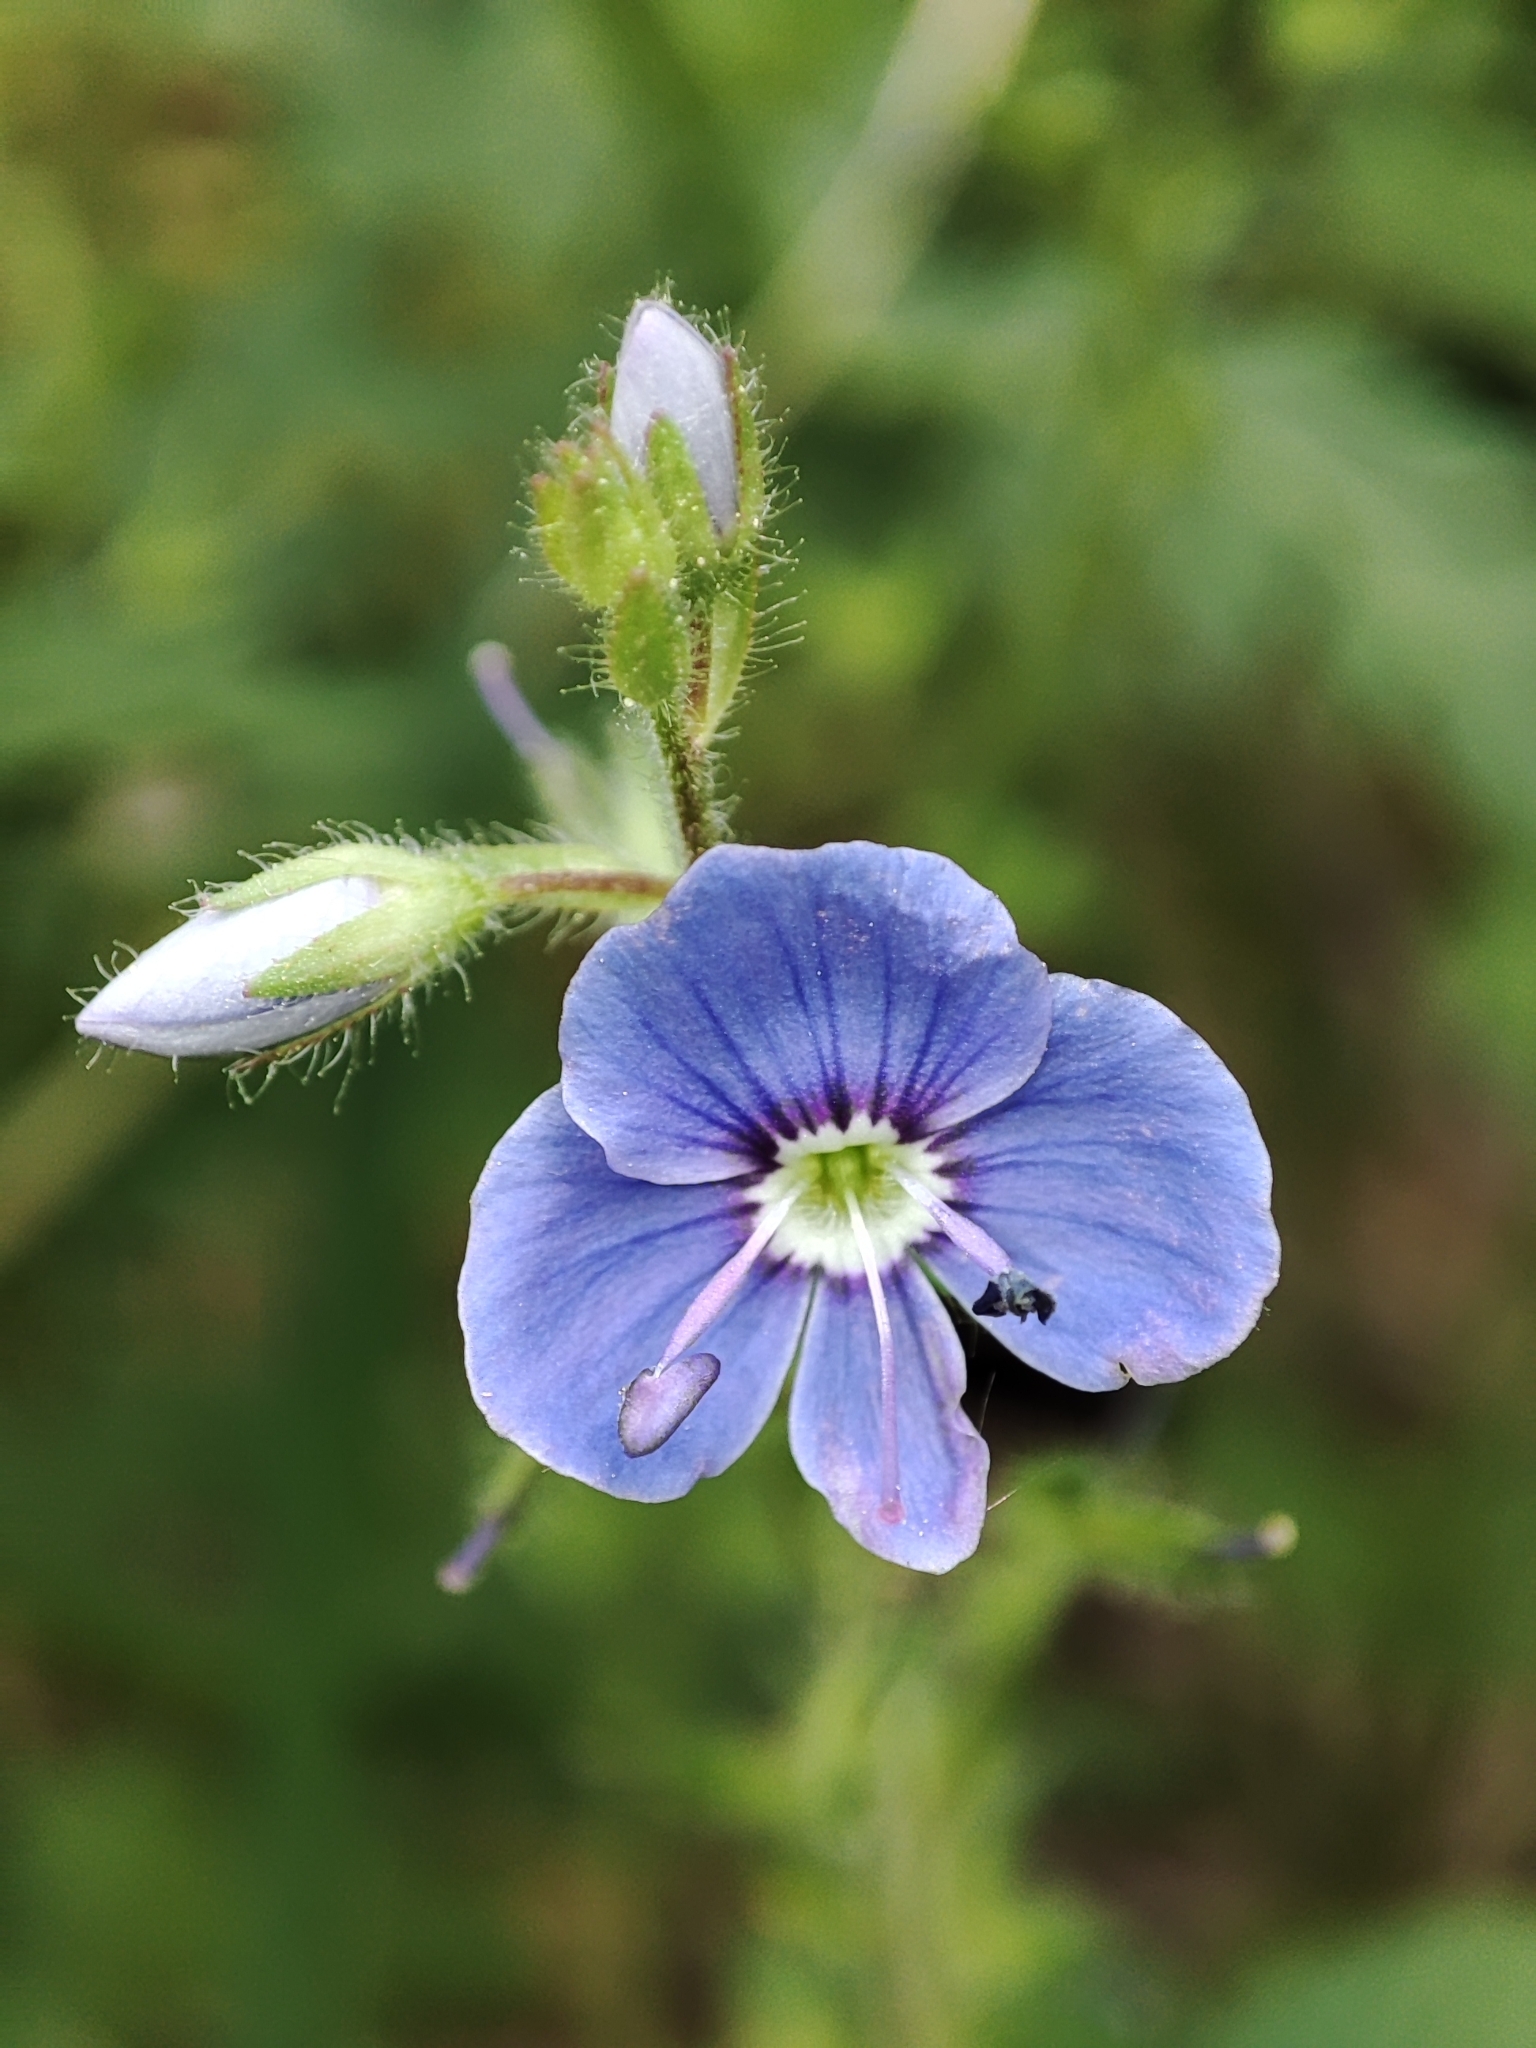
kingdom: Plantae
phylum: Tracheophyta
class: Magnoliopsida
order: Lamiales
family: Plantaginaceae
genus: Veronica
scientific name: Veronica vindobonensis
